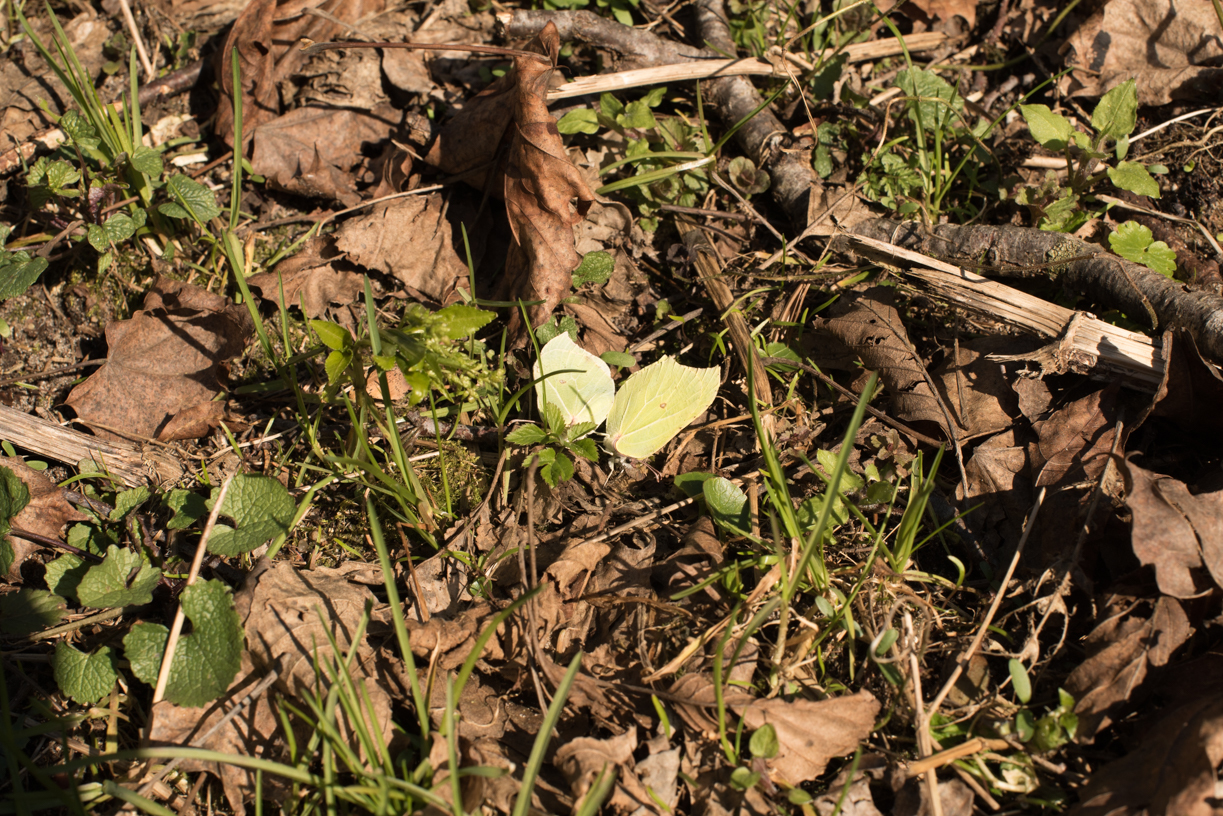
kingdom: Animalia
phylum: Arthropoda
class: Insecta
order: Lepidoptera
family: Pieridae
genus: Gonepteryx
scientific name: Gonepteryx rhamni
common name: Brimstone
